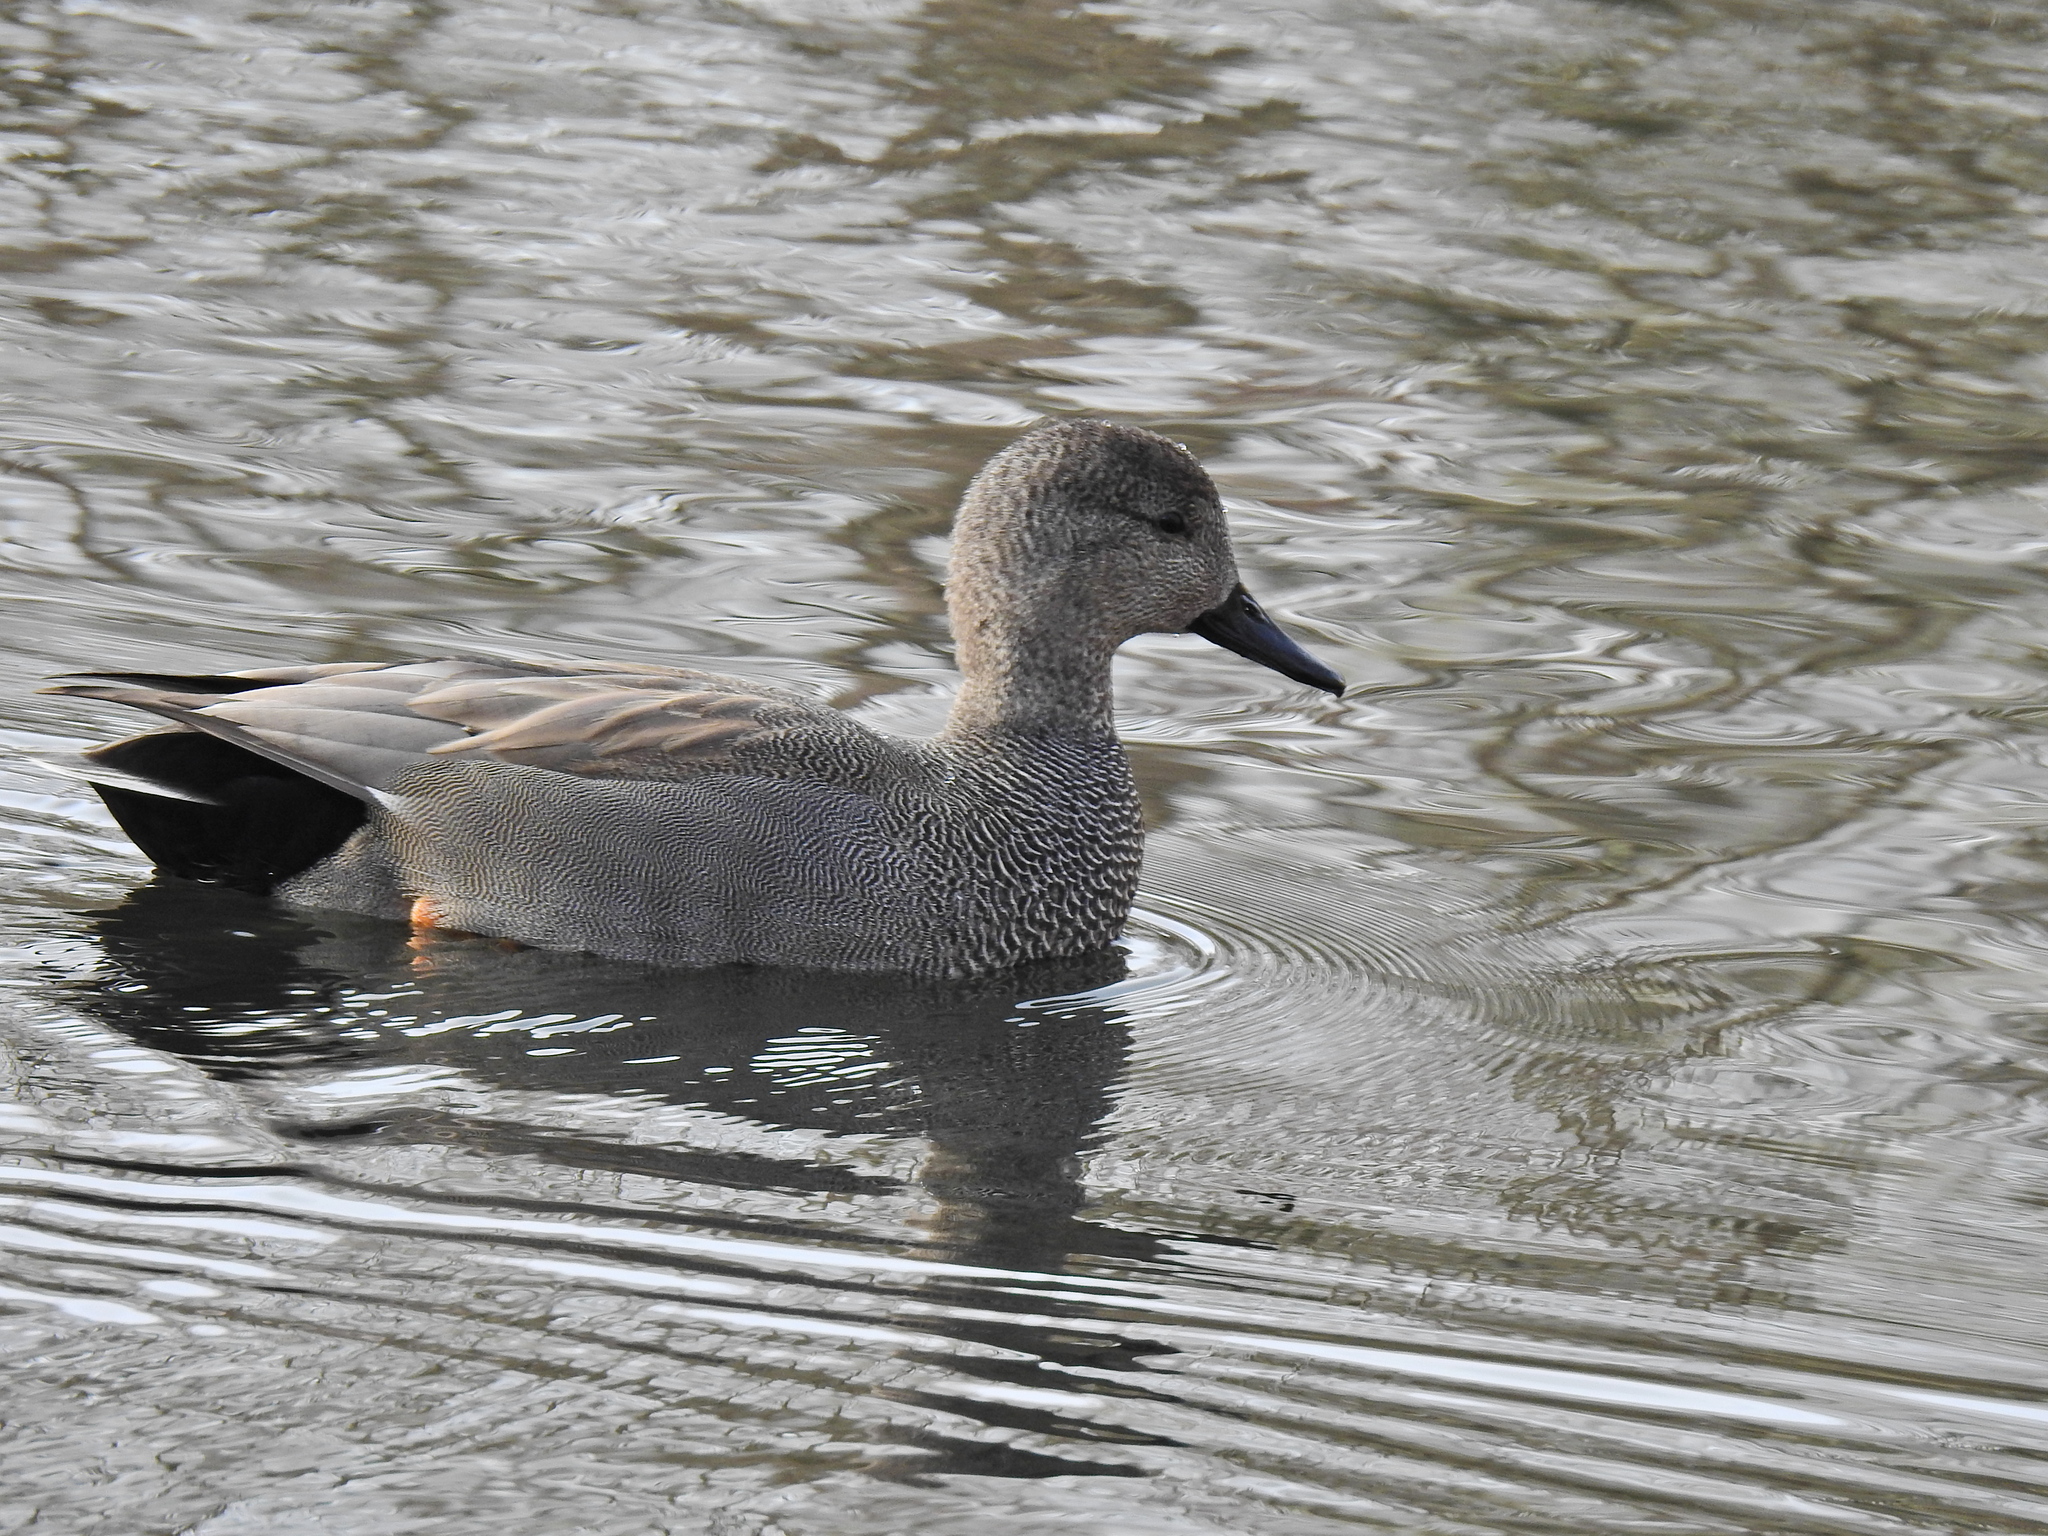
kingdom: Animalia
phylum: Chordata
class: Aves
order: Anseriformes
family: Anatidae
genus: Mareca
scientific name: Mareca strepera
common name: Gadwall
